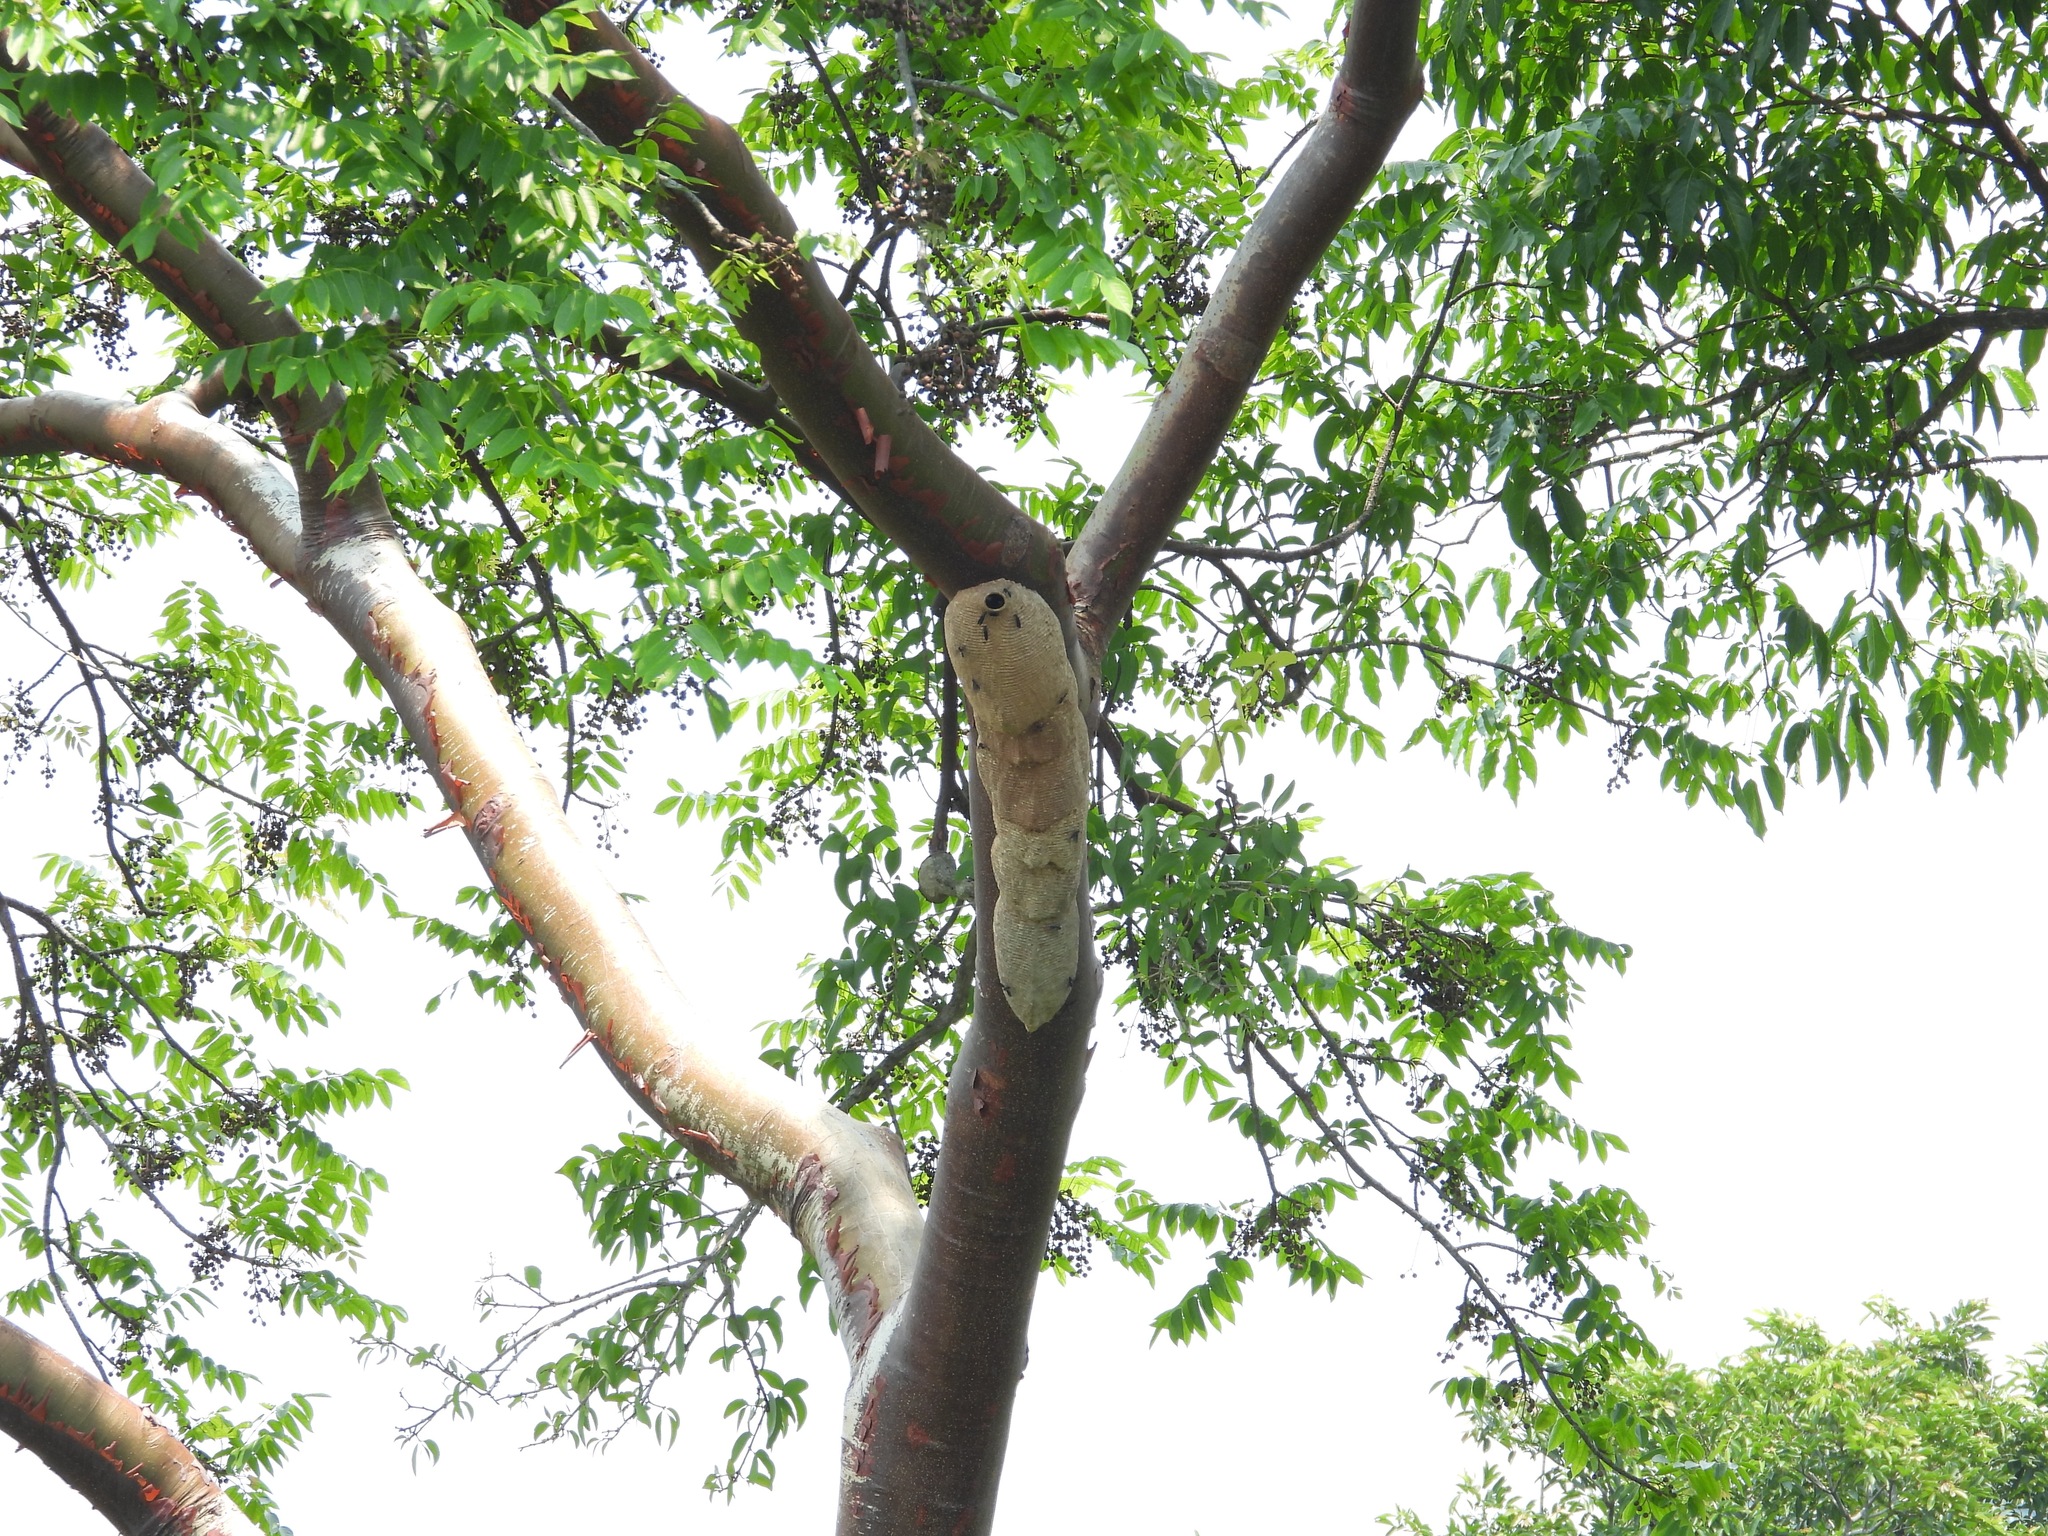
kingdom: Animalia
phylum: Arthropoda
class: Insecta
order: Hymenoptera
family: Vespidae
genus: Synoeca
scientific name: Synoeca septentrionalis
